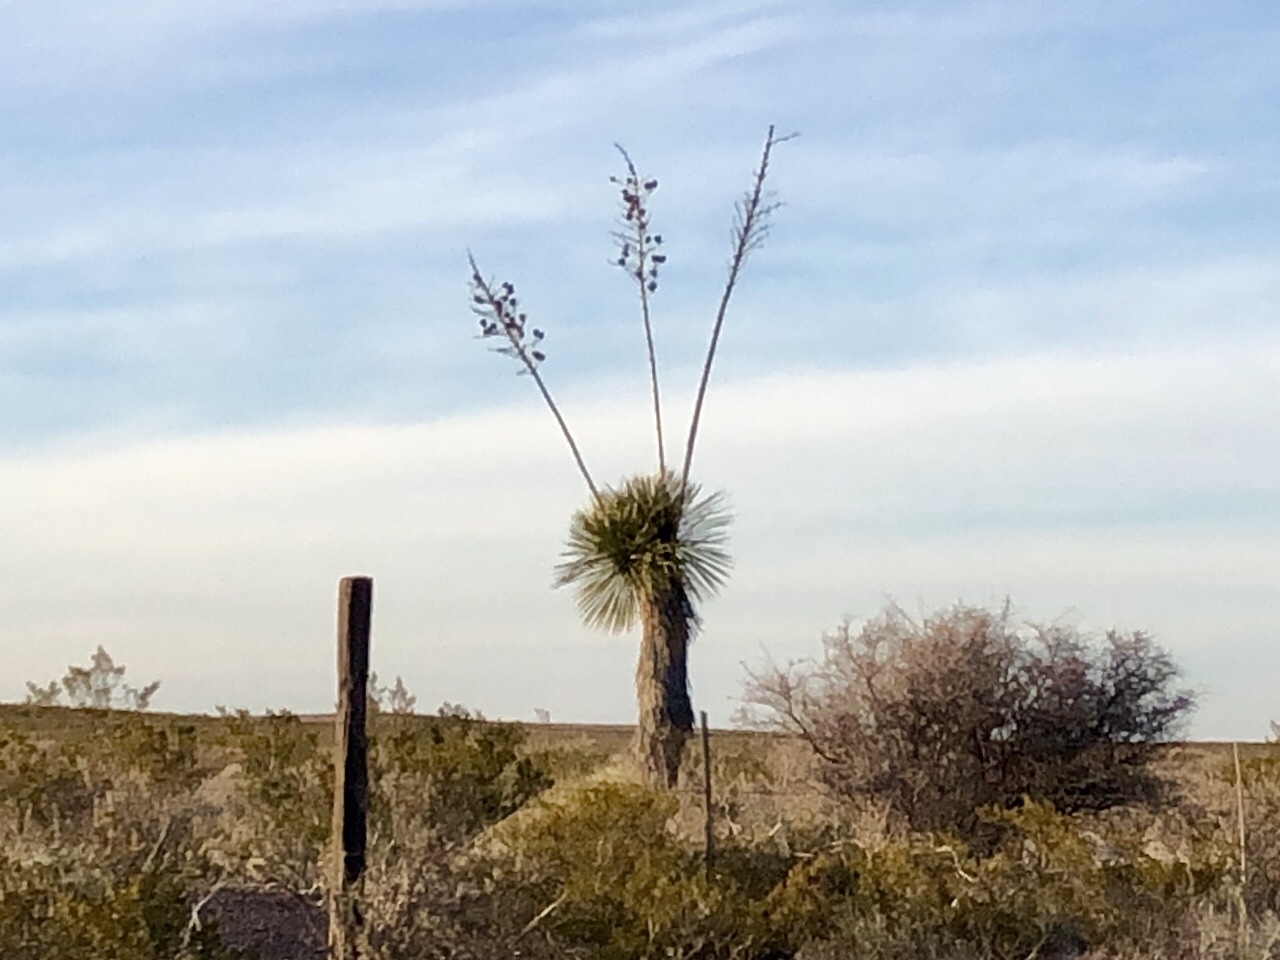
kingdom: Plantae
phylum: Tracheophyta
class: Liliopsida
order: Asparagales
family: Asparagaceae
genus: Yucca
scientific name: Yucca elata
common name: Palmella
